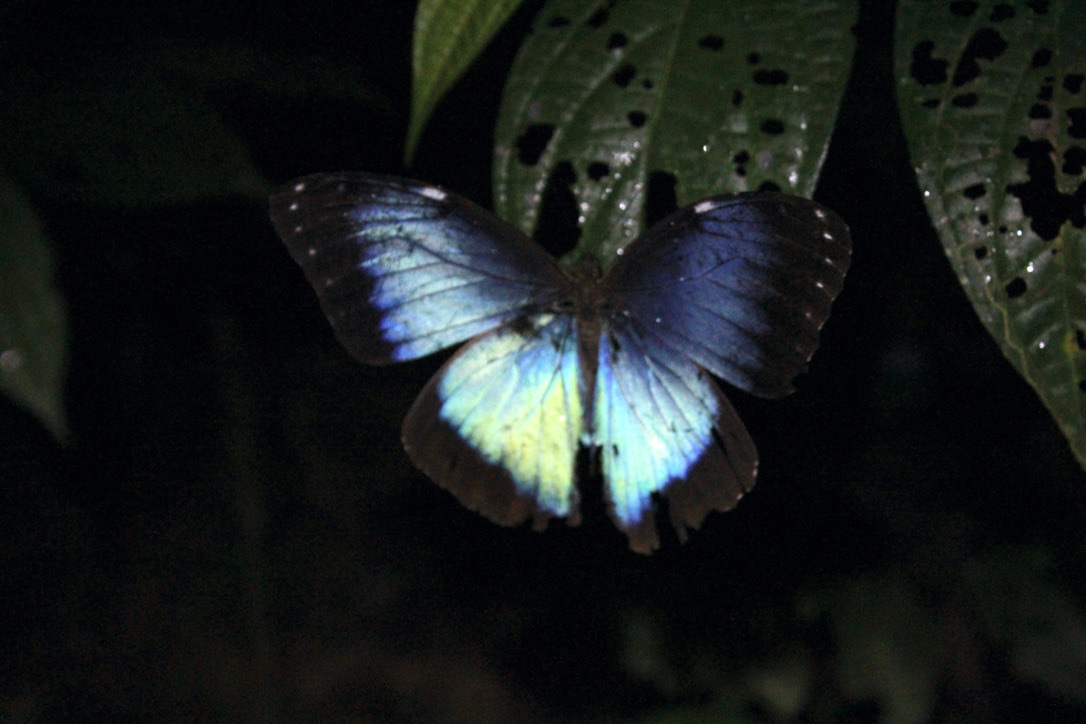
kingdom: Animalia
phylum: Arthropoda
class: Insecta
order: Lepidoptera
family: Nymphalidae
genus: Morpho
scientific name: Morpho helenor
